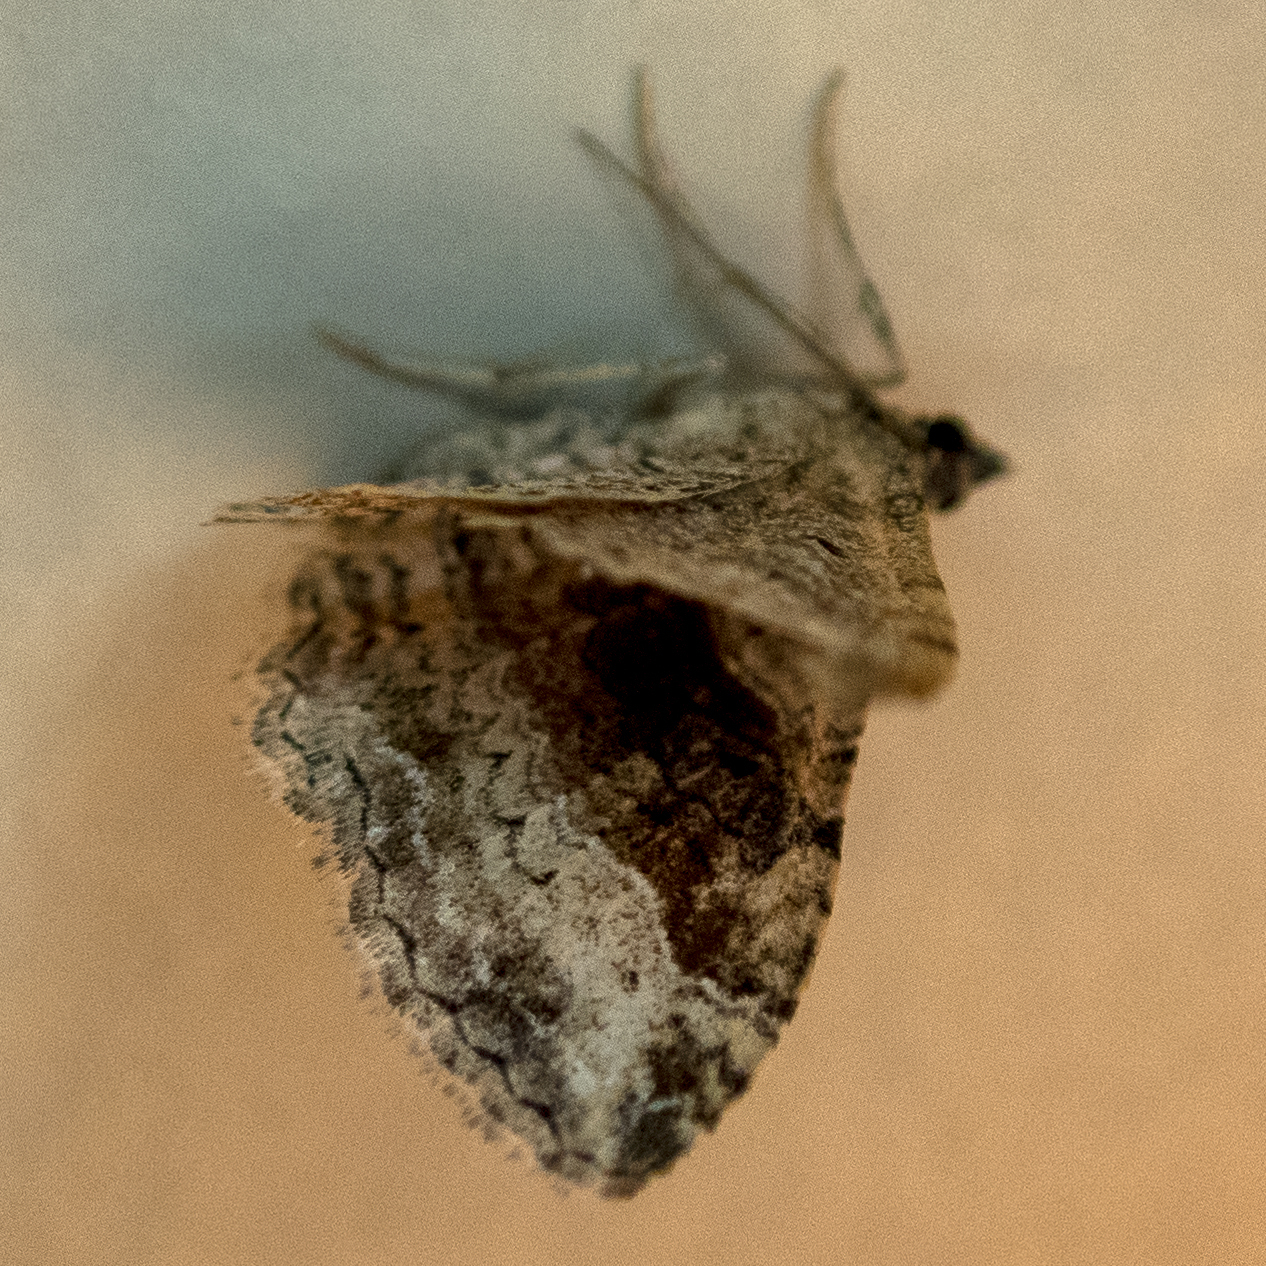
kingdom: Animalia
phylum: Arthropoda
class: Insecta
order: Lepidoptera
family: Geometridae
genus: Costaconvexa
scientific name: Costaconvexa centrostrigaria
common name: Bent-line carpet
